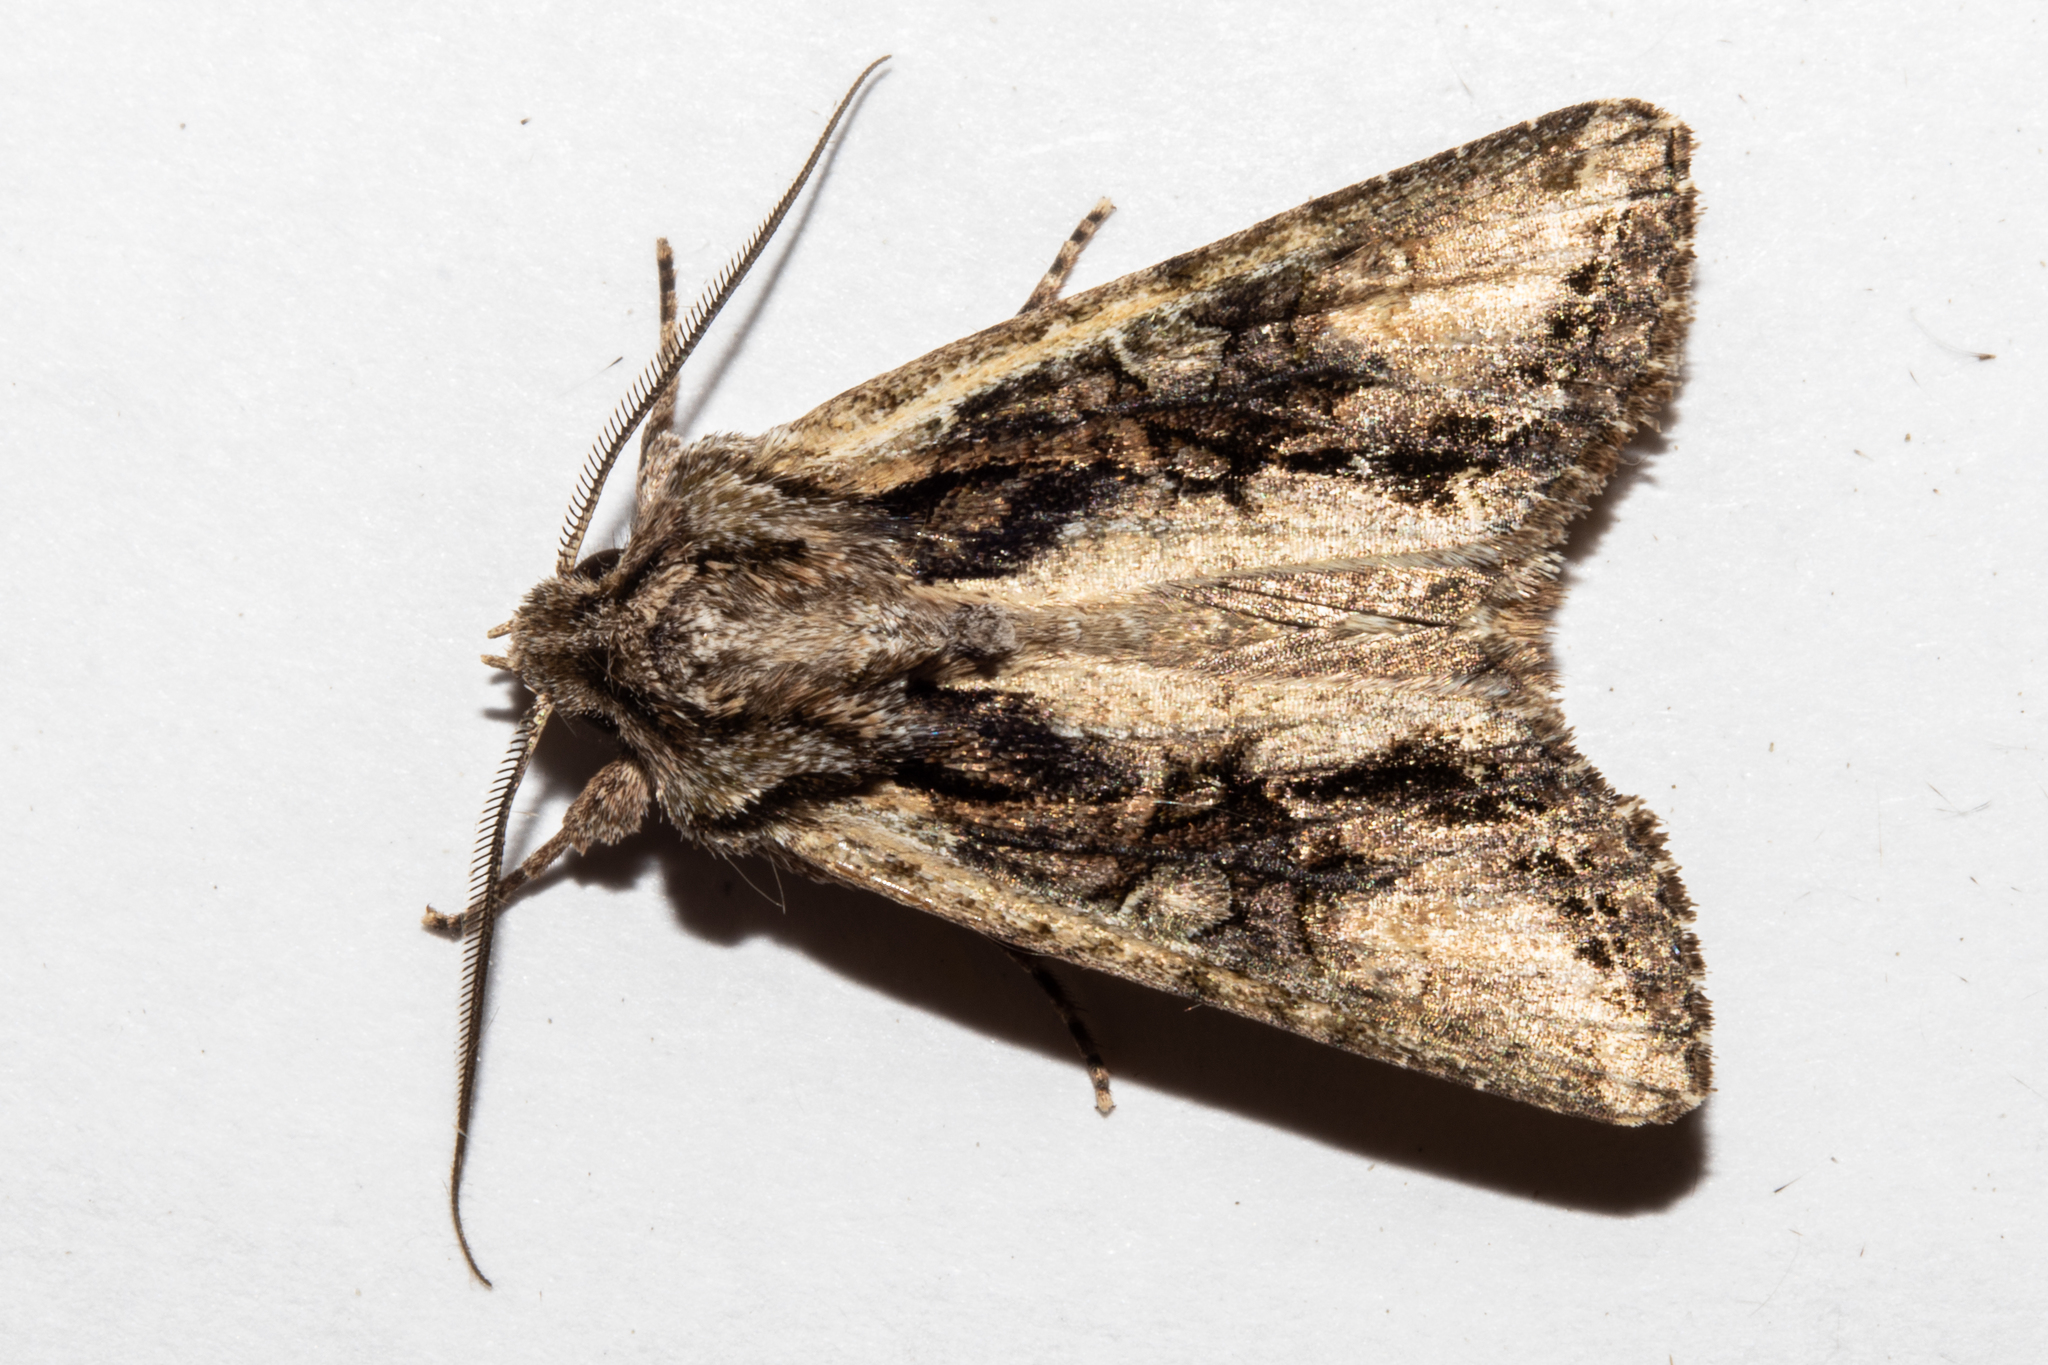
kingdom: Animalia
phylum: Arthropoda
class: Insecta
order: Lepidoptera
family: Noctuidae
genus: Ichneutica
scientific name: Ichneutica mutans
